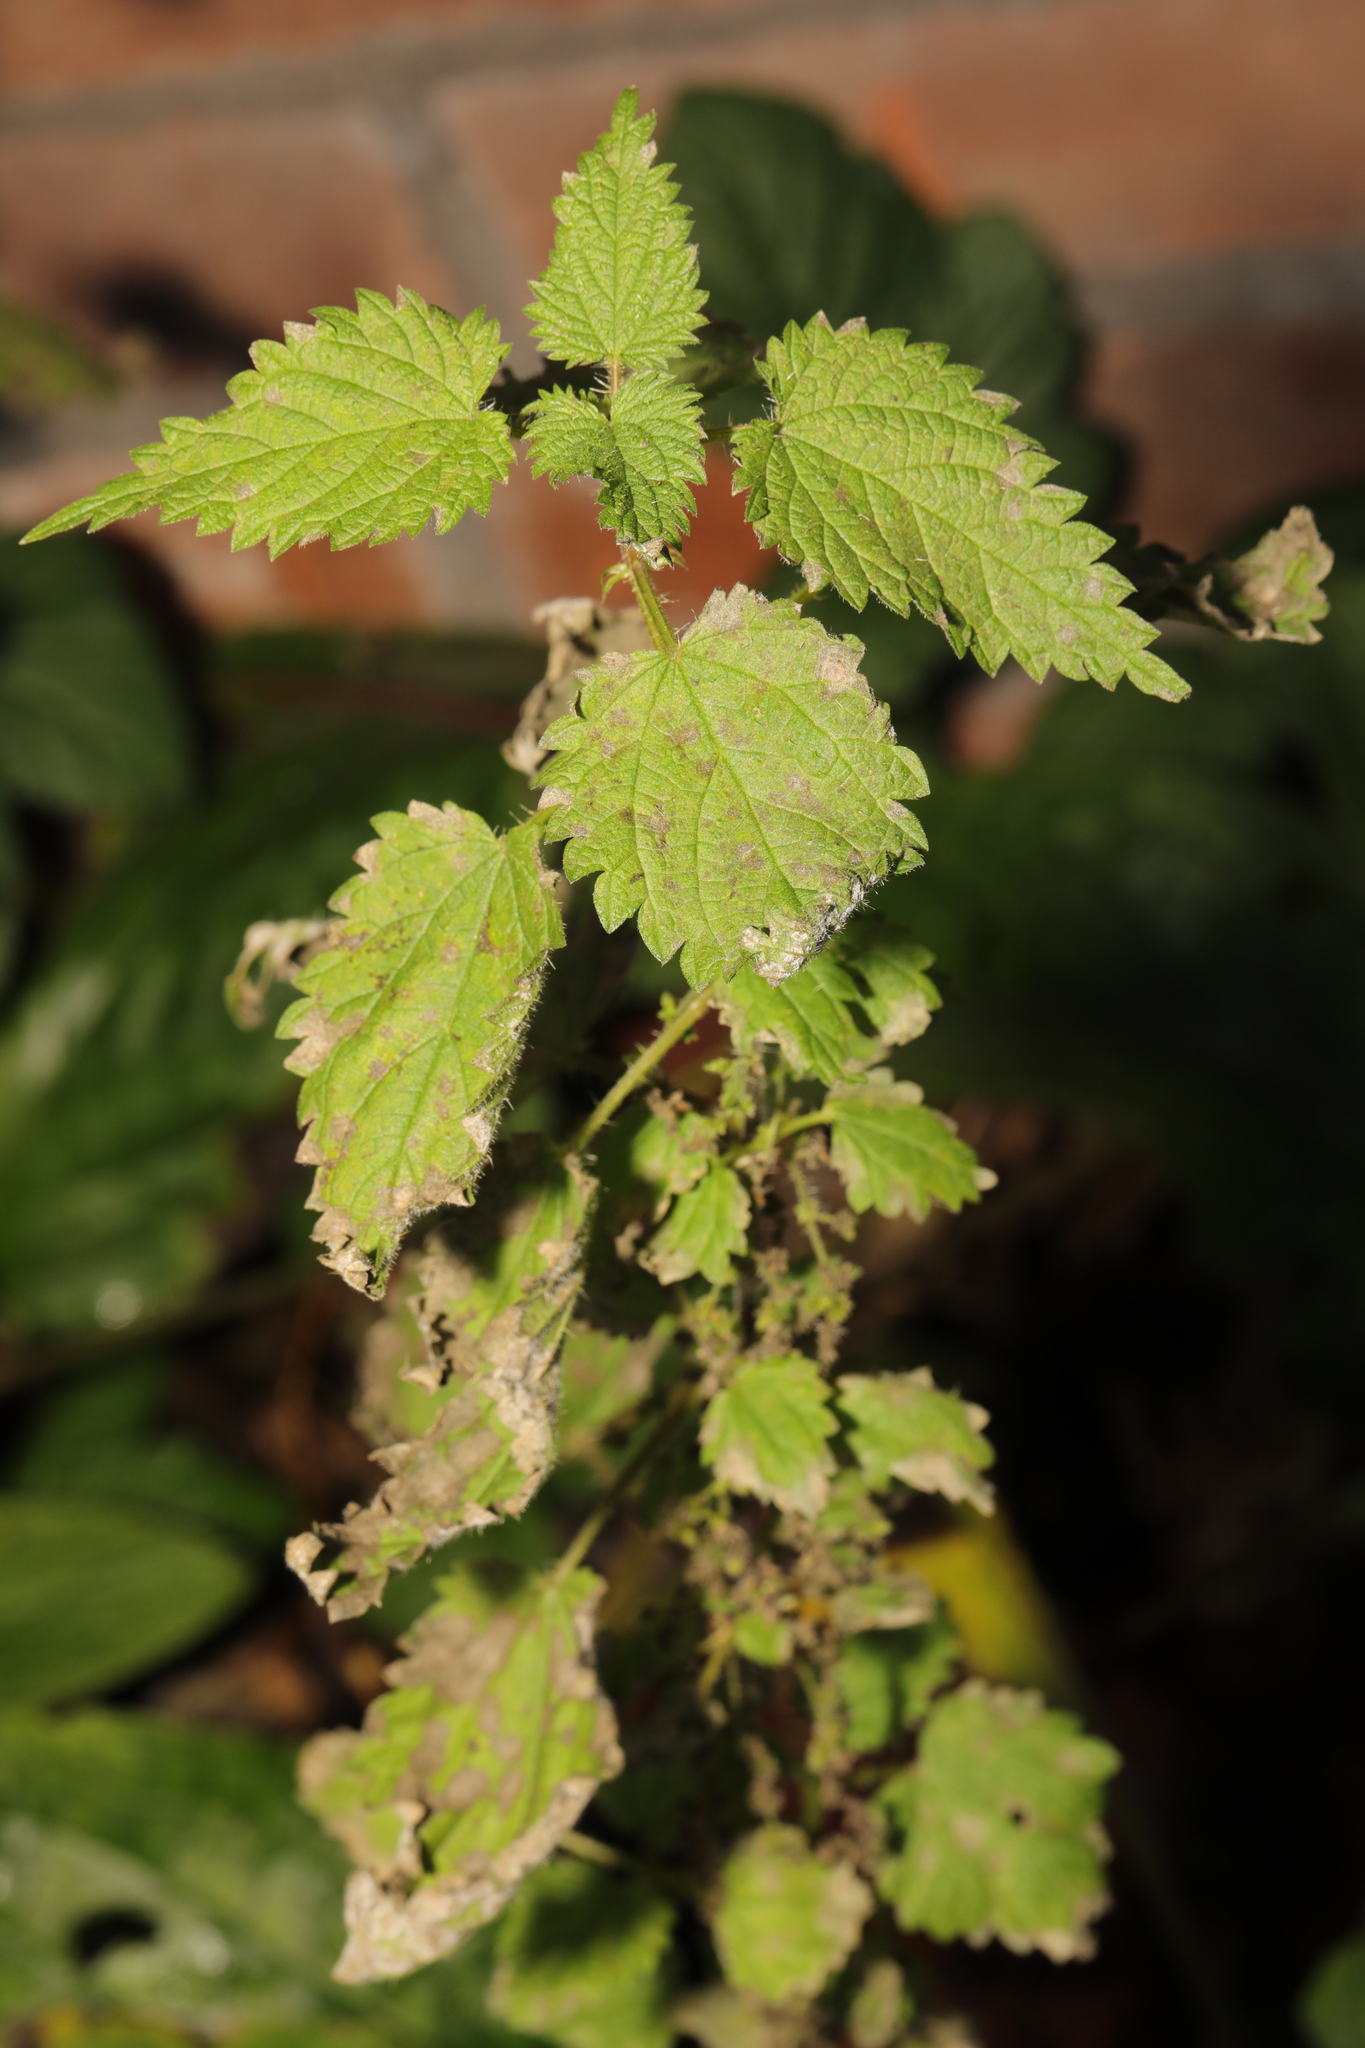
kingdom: Plantae
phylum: Tracheophyta
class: Magnoliopsida
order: Rosales
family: Urticaceae
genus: Urtica
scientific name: Urtica dioica
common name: Common nettle
